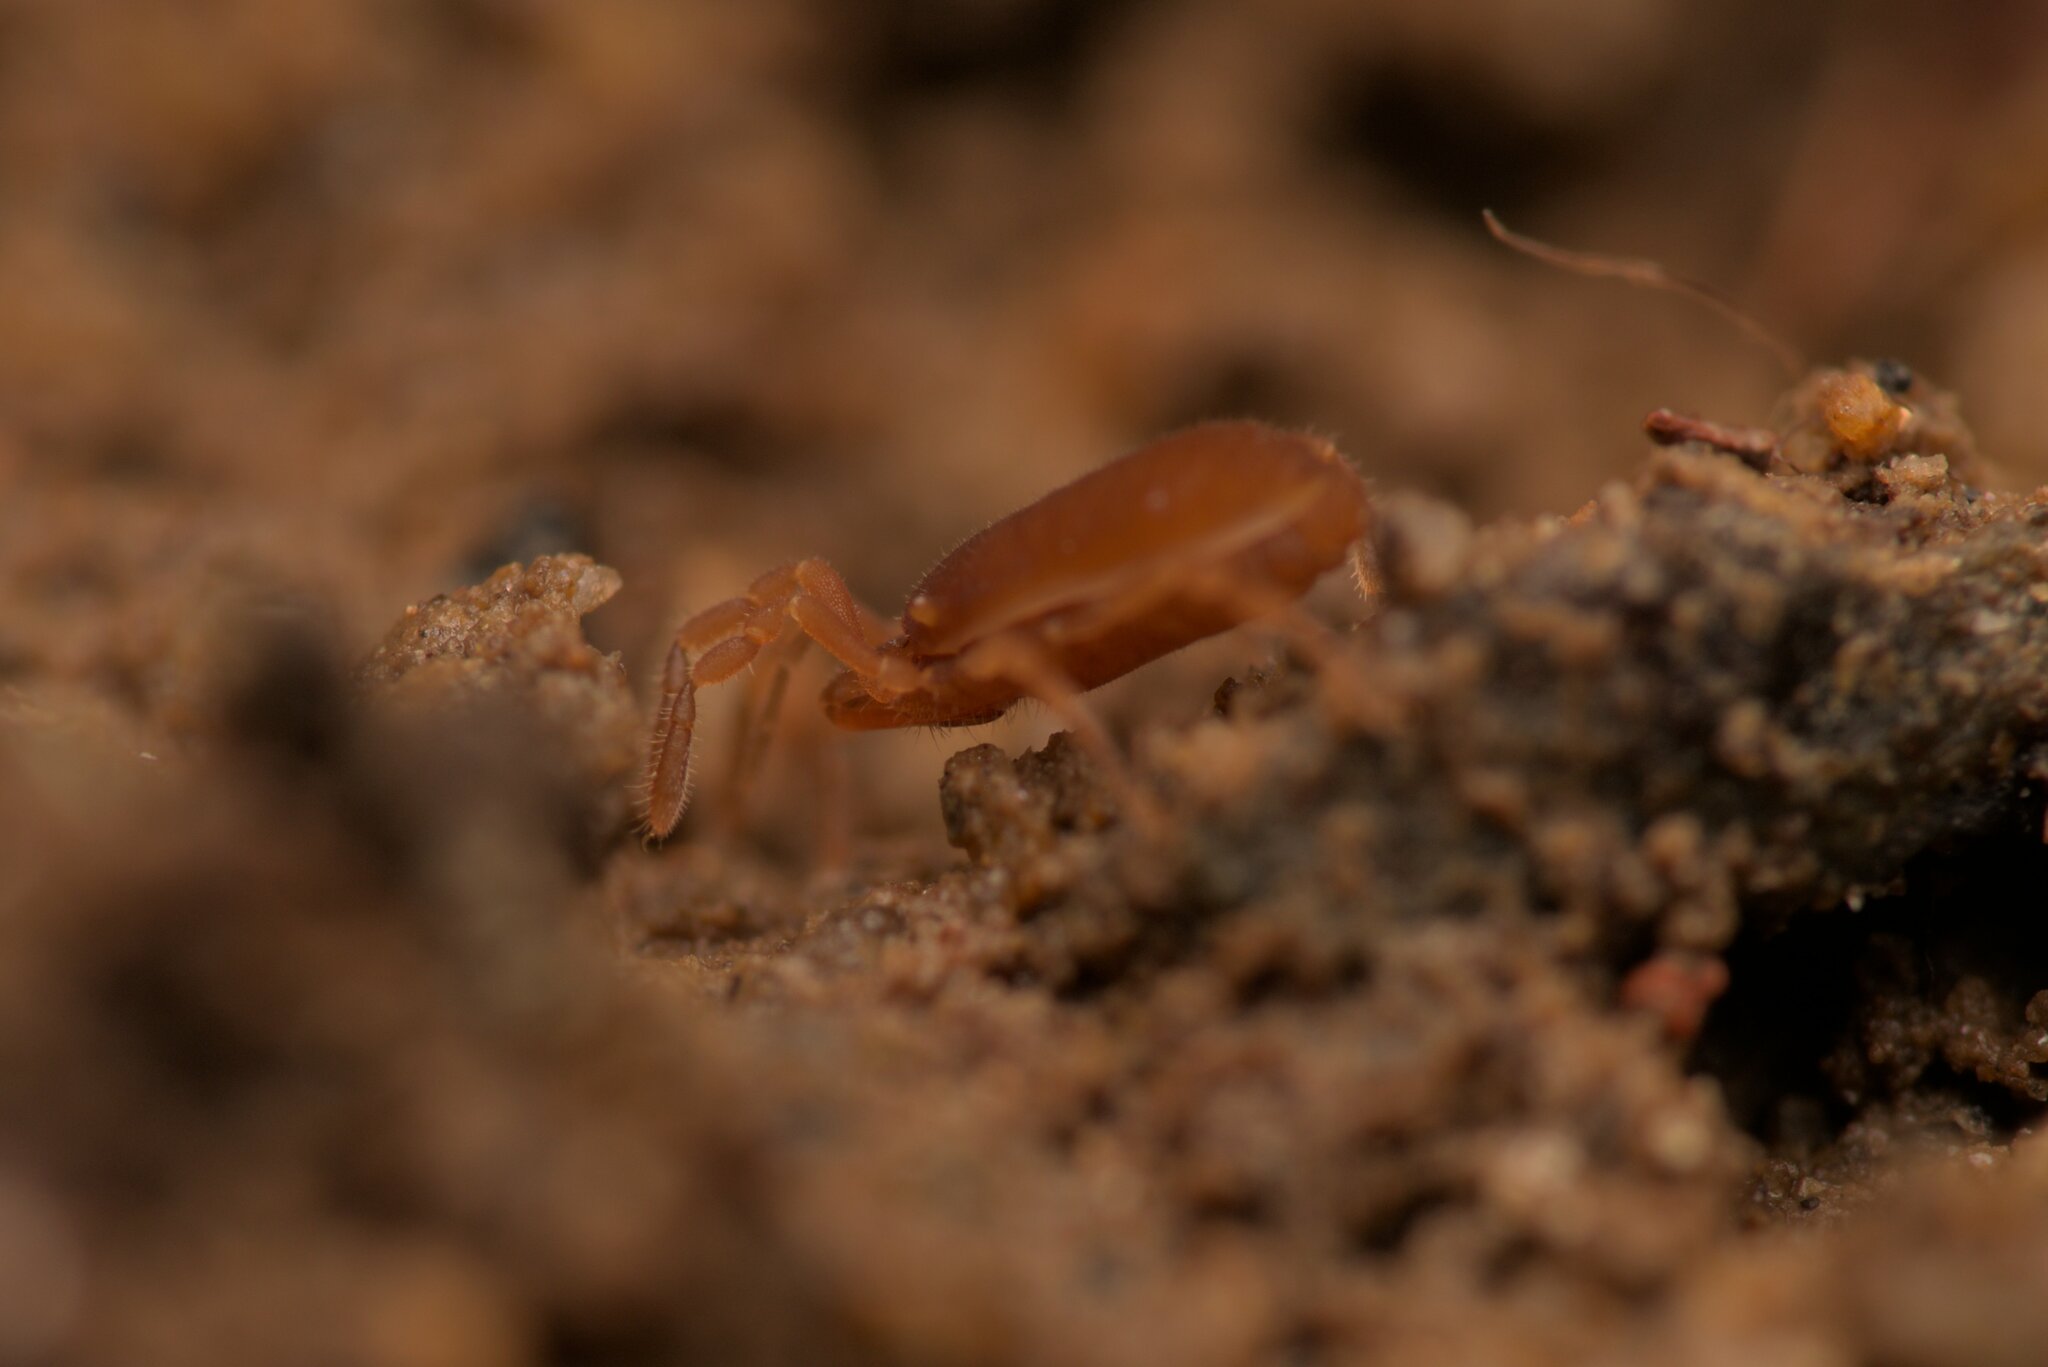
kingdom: Animalia
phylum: Arthropoda
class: Arachnida
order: Opiliones
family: Sironidae
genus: Siro
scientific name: Siro rubens
